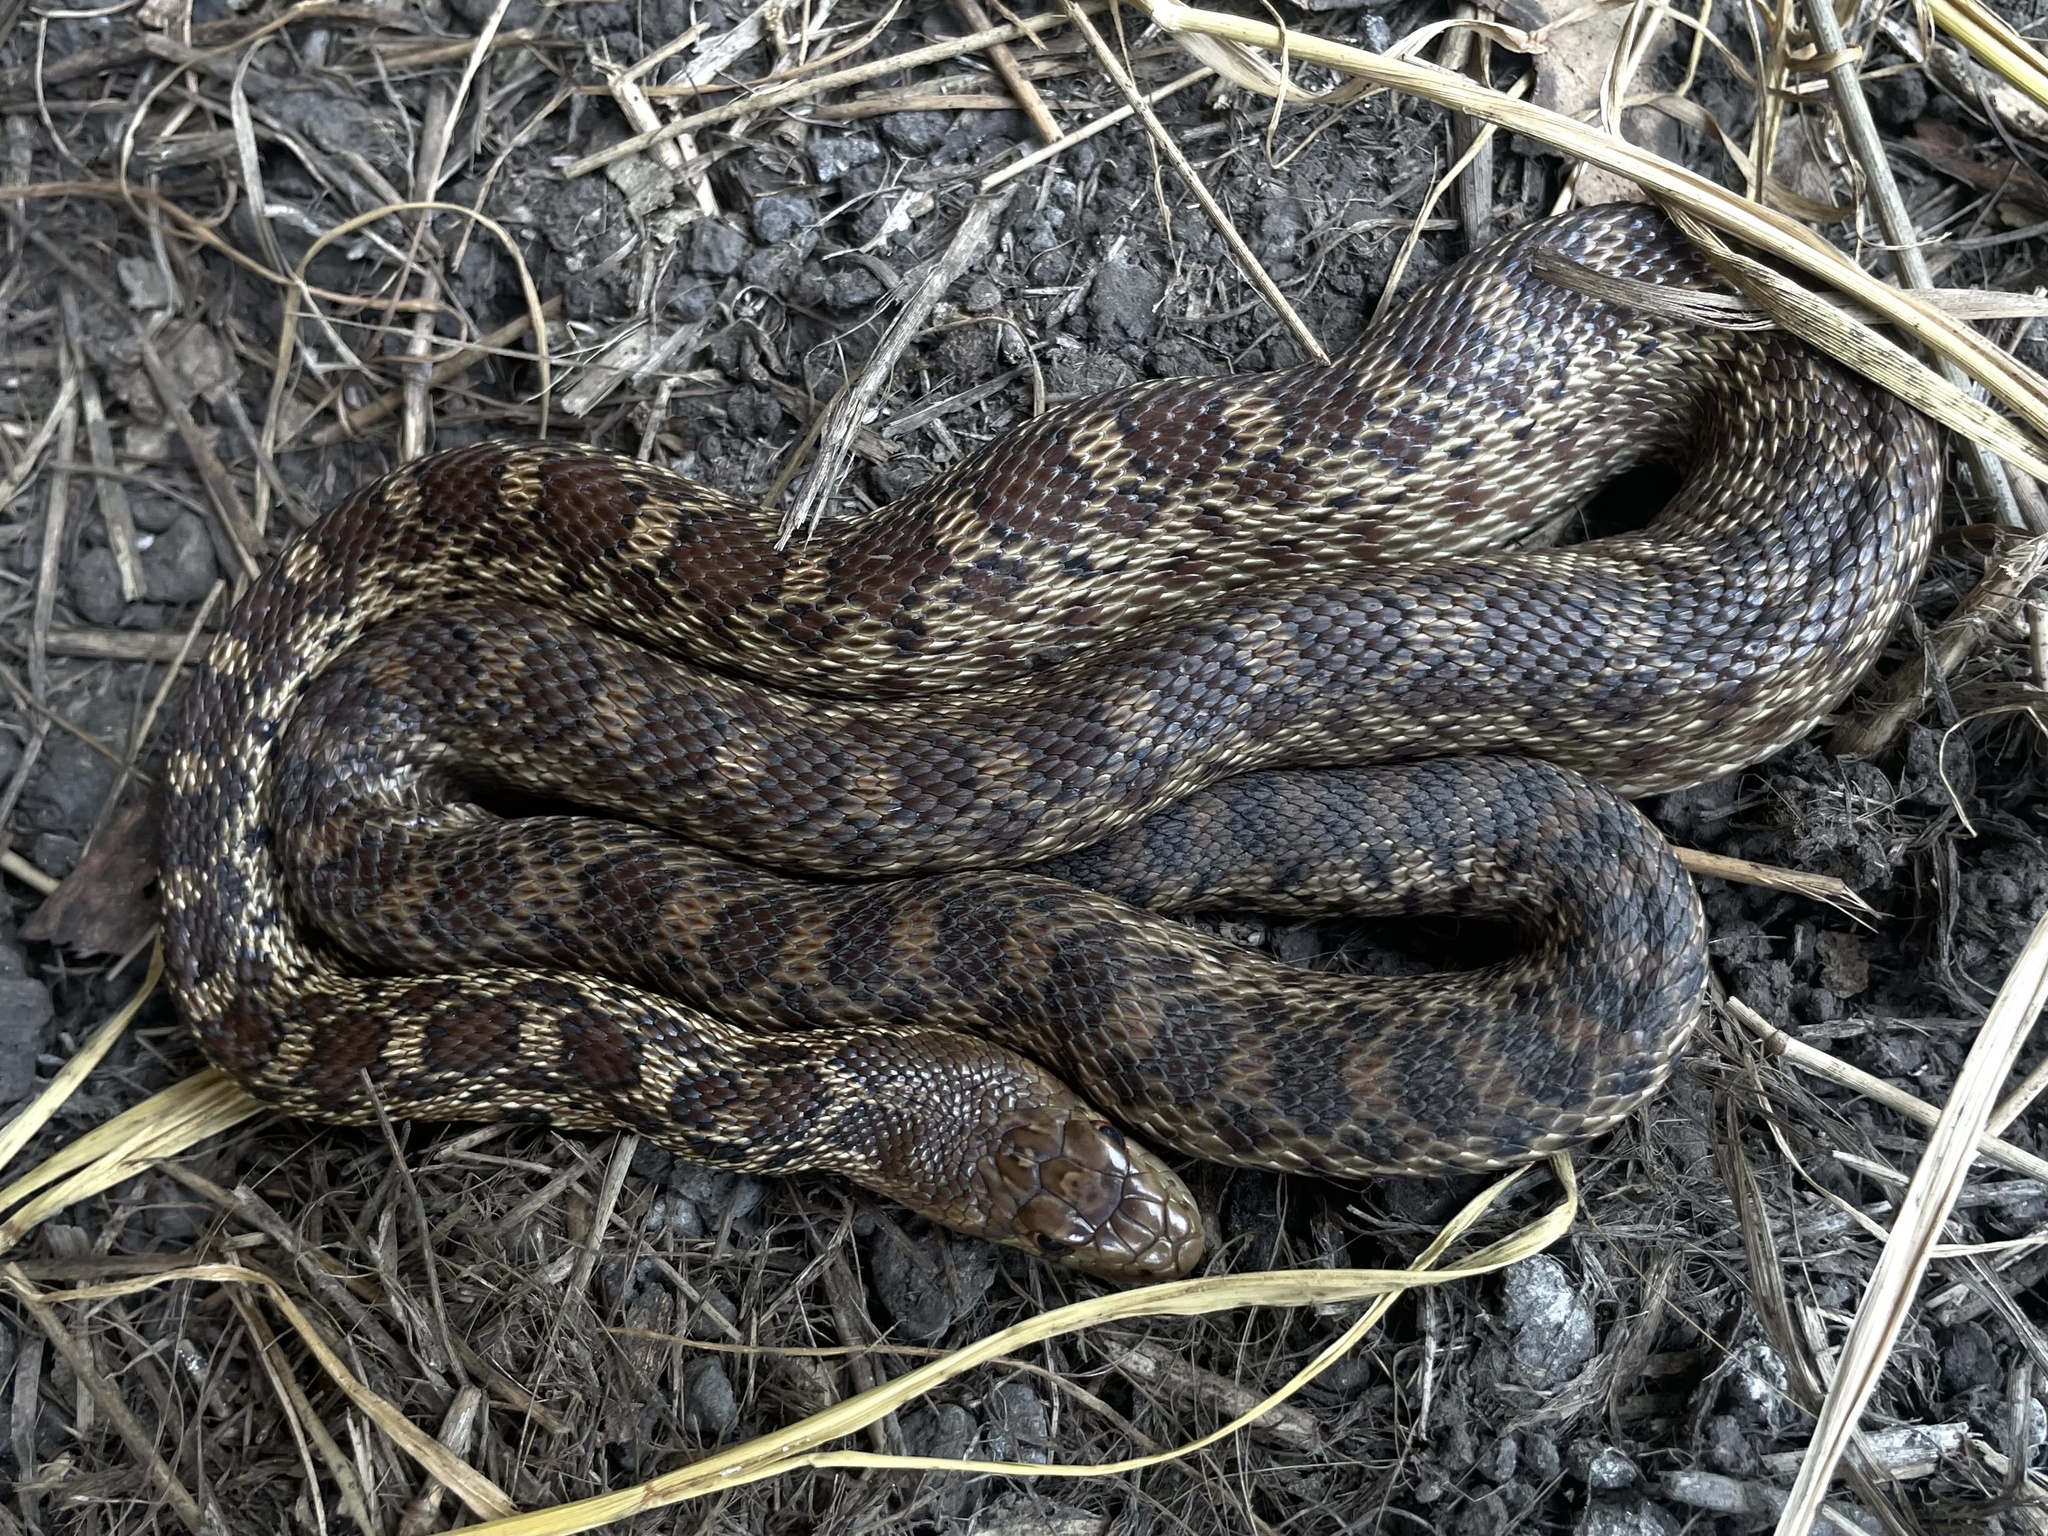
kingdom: Animalia
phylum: Chordata
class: Squamata
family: Colubridae
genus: Pituophis
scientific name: Pituophis catenifer
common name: Gopher snake
